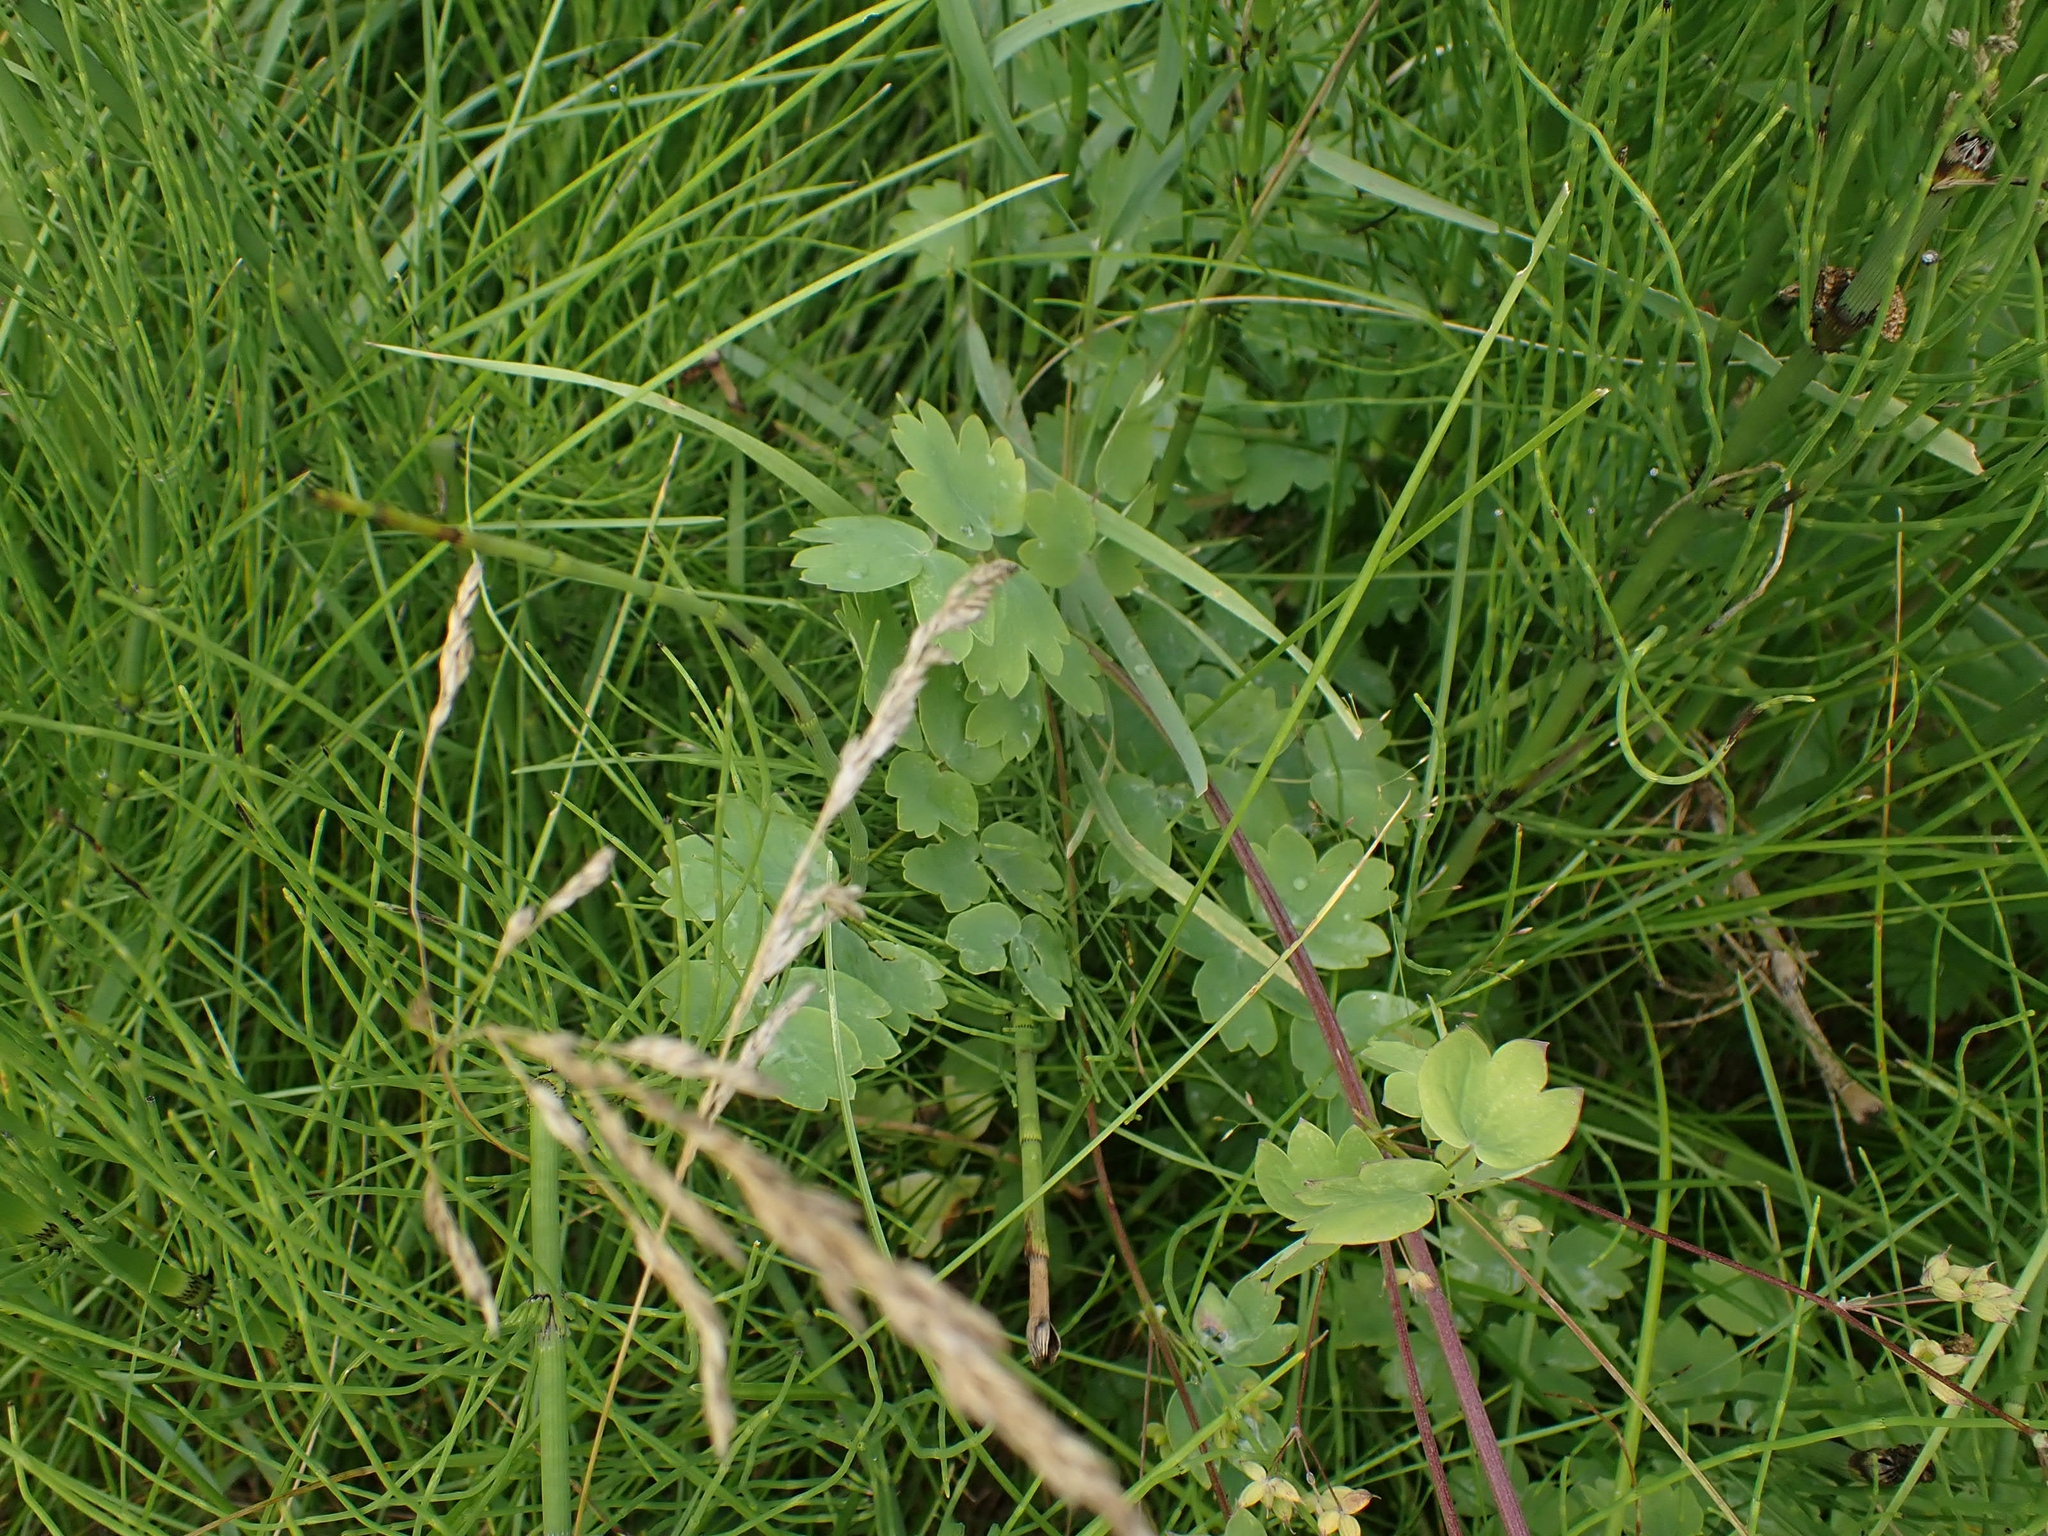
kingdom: Plantae
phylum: Tracheophyta
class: Magnoliopsida
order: Ranunculales
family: Ranunculaceae
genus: Thalictrum
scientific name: Thalictrum dasycarpum
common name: Purple meadow-rue
